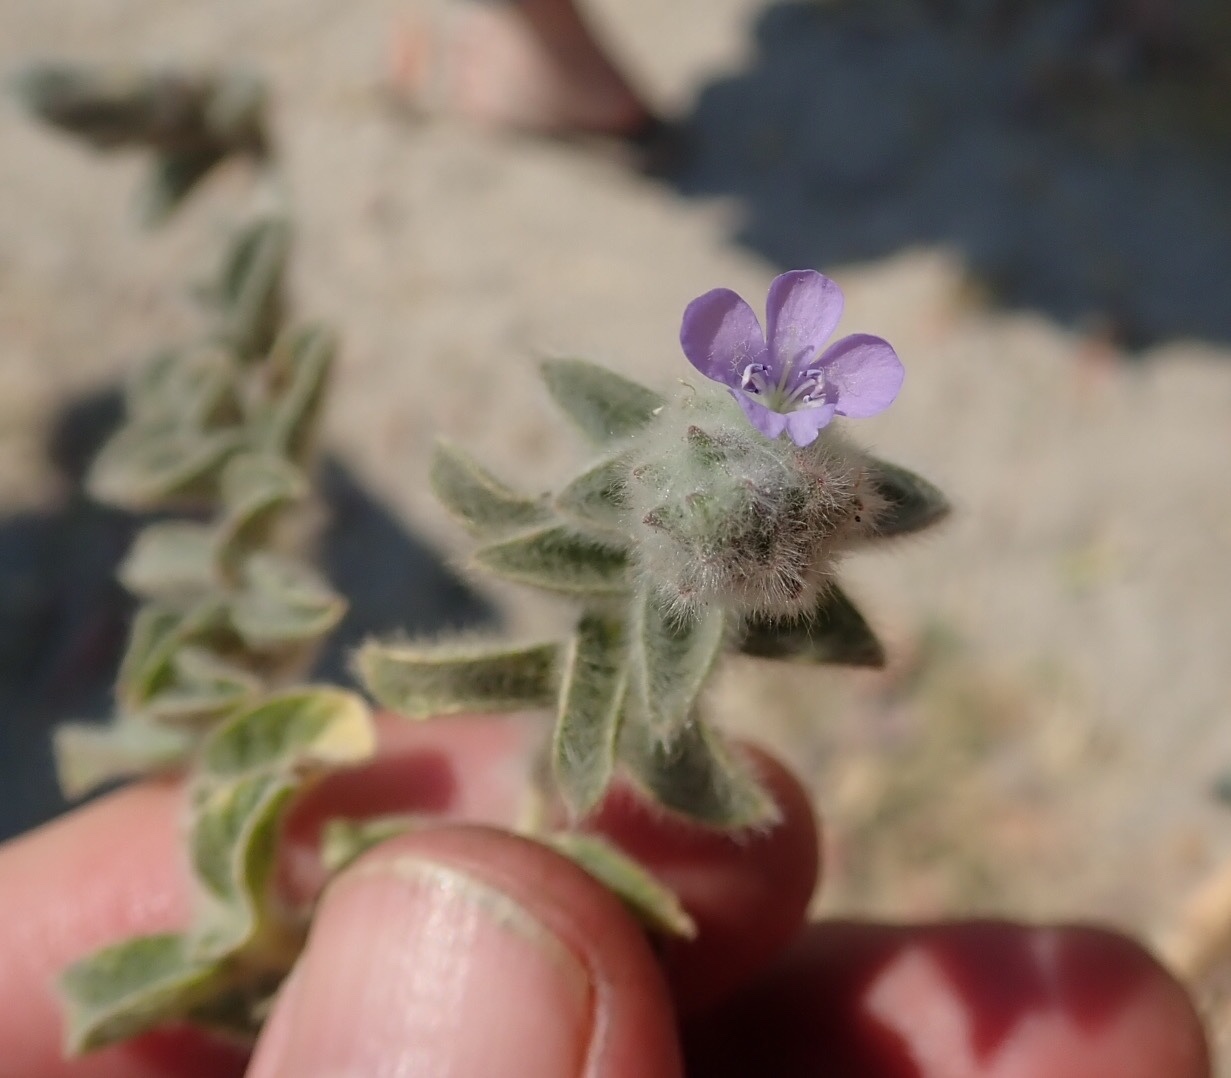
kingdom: Plantae
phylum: Tracheophyta
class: Magnoliopsida
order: Lamiales
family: Acanthaceae
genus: Nelsonia
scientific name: Nelsonia canescens
